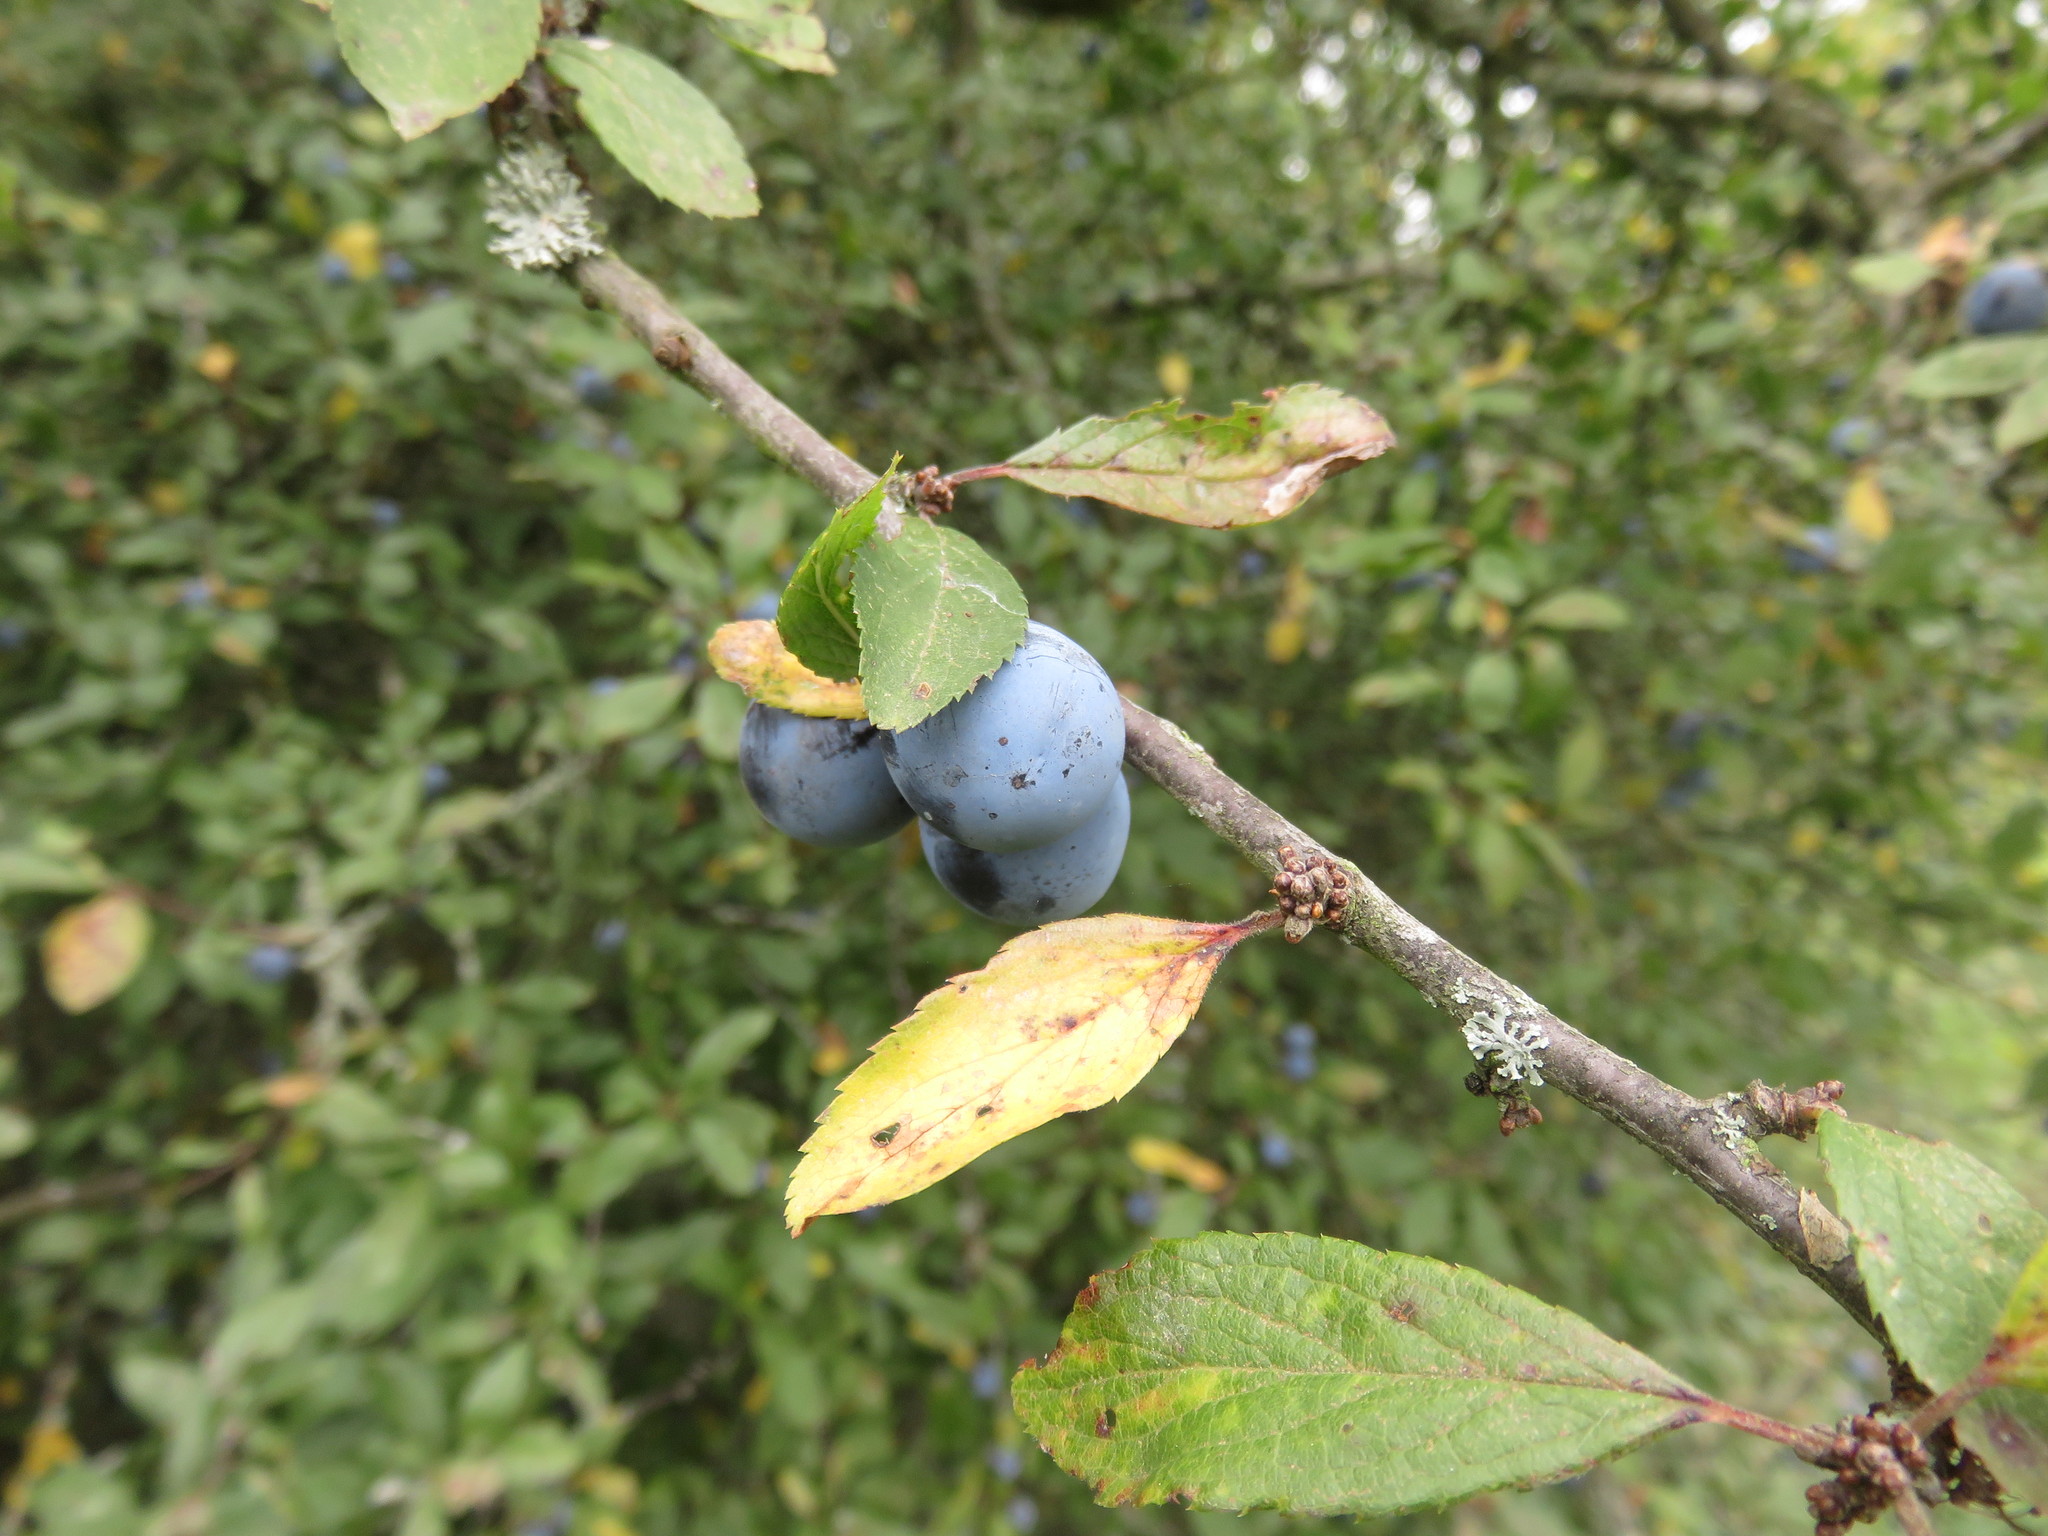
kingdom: Plantae
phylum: Tracheophyta
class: Magnoliopsida
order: Rosales
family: Rosaceae
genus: Prunus
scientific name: Prunus spinosa
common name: Blackthorn
